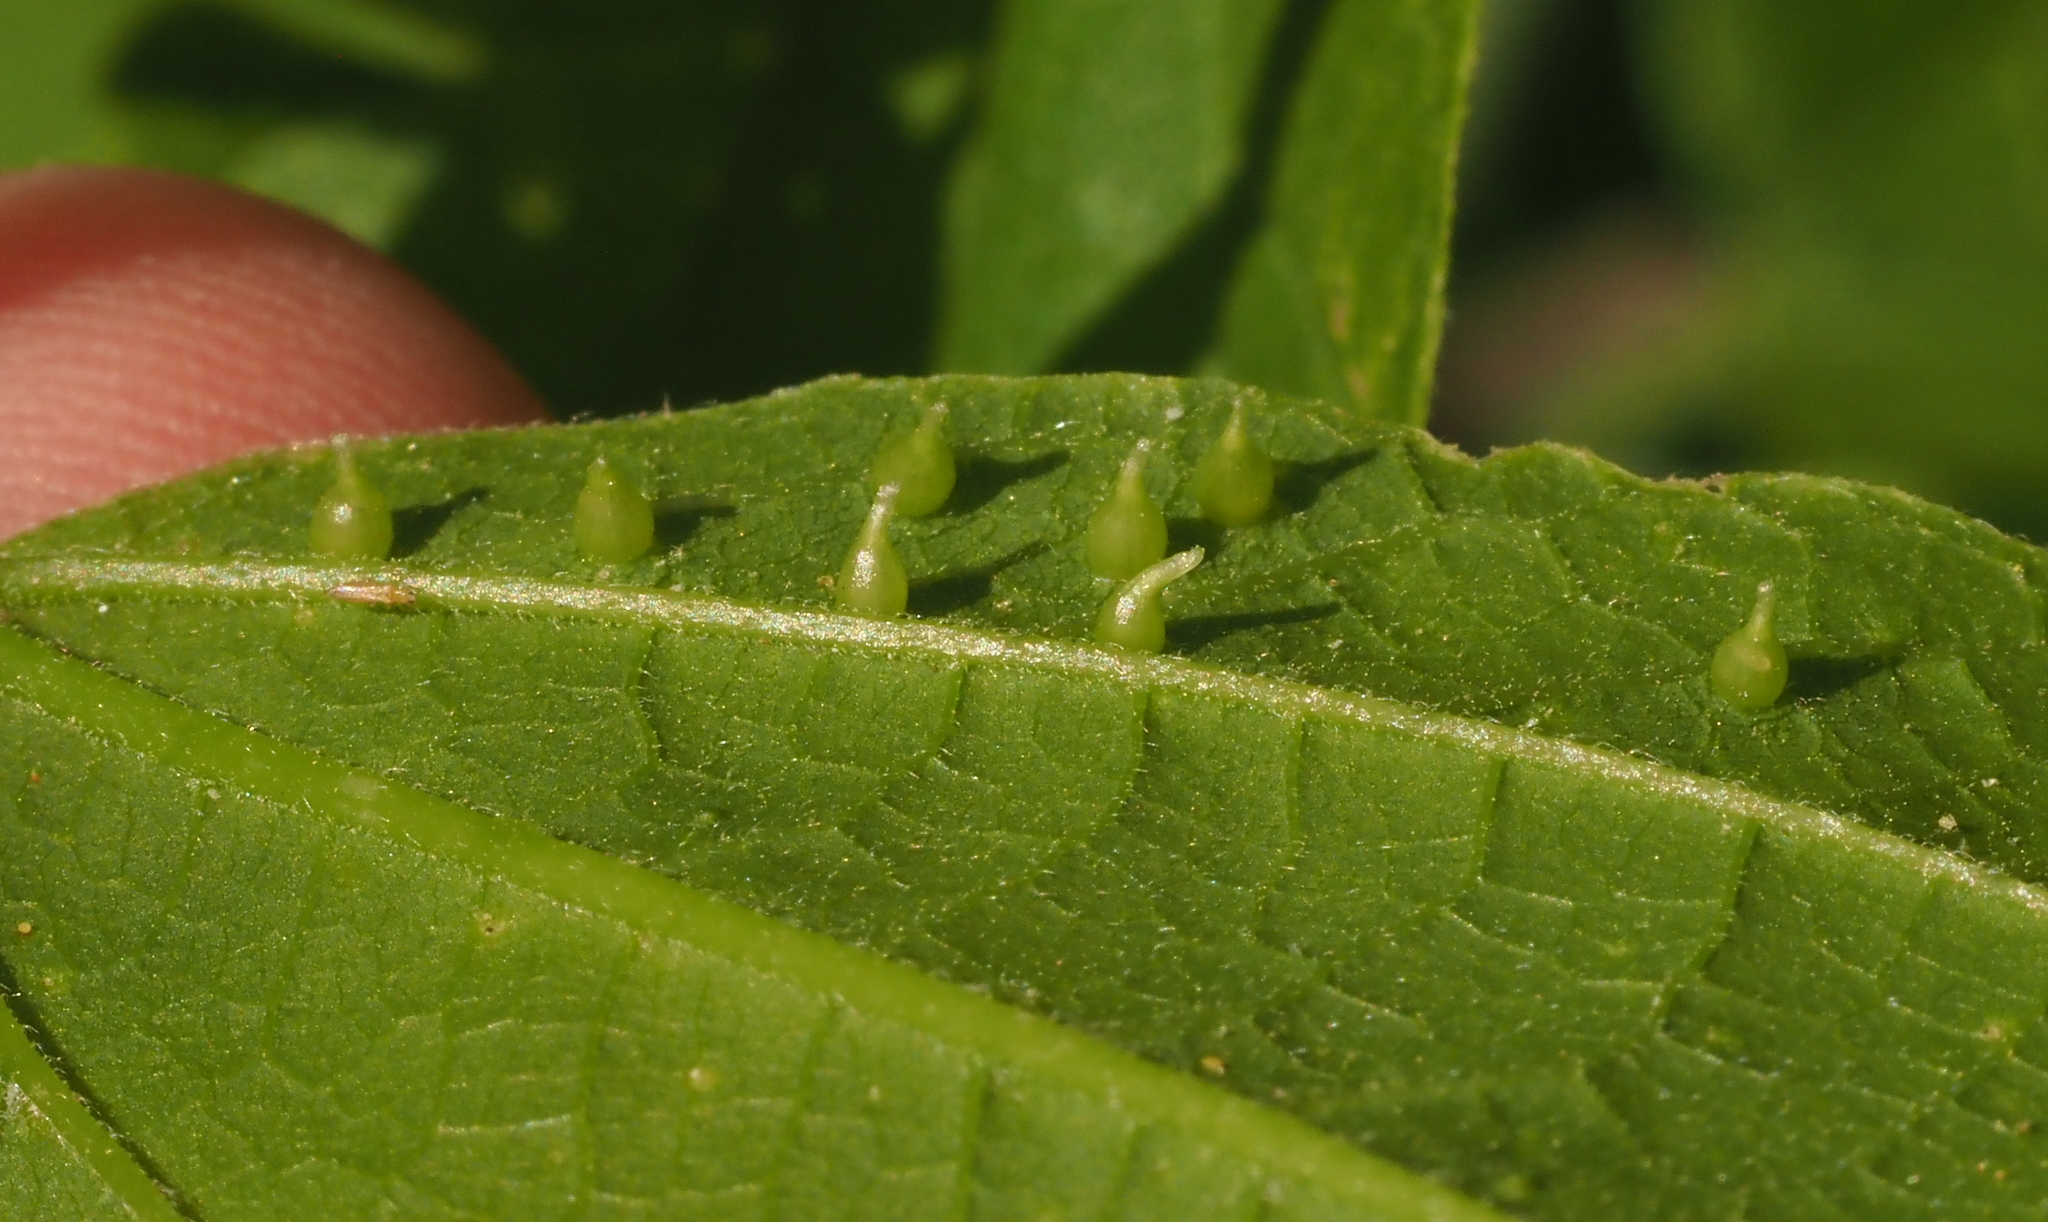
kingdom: Animalia
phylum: Arthropoda
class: Insecta
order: Diptera
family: Cecidomyiidae
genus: Celticecis
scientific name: Celticecis spiniformis
